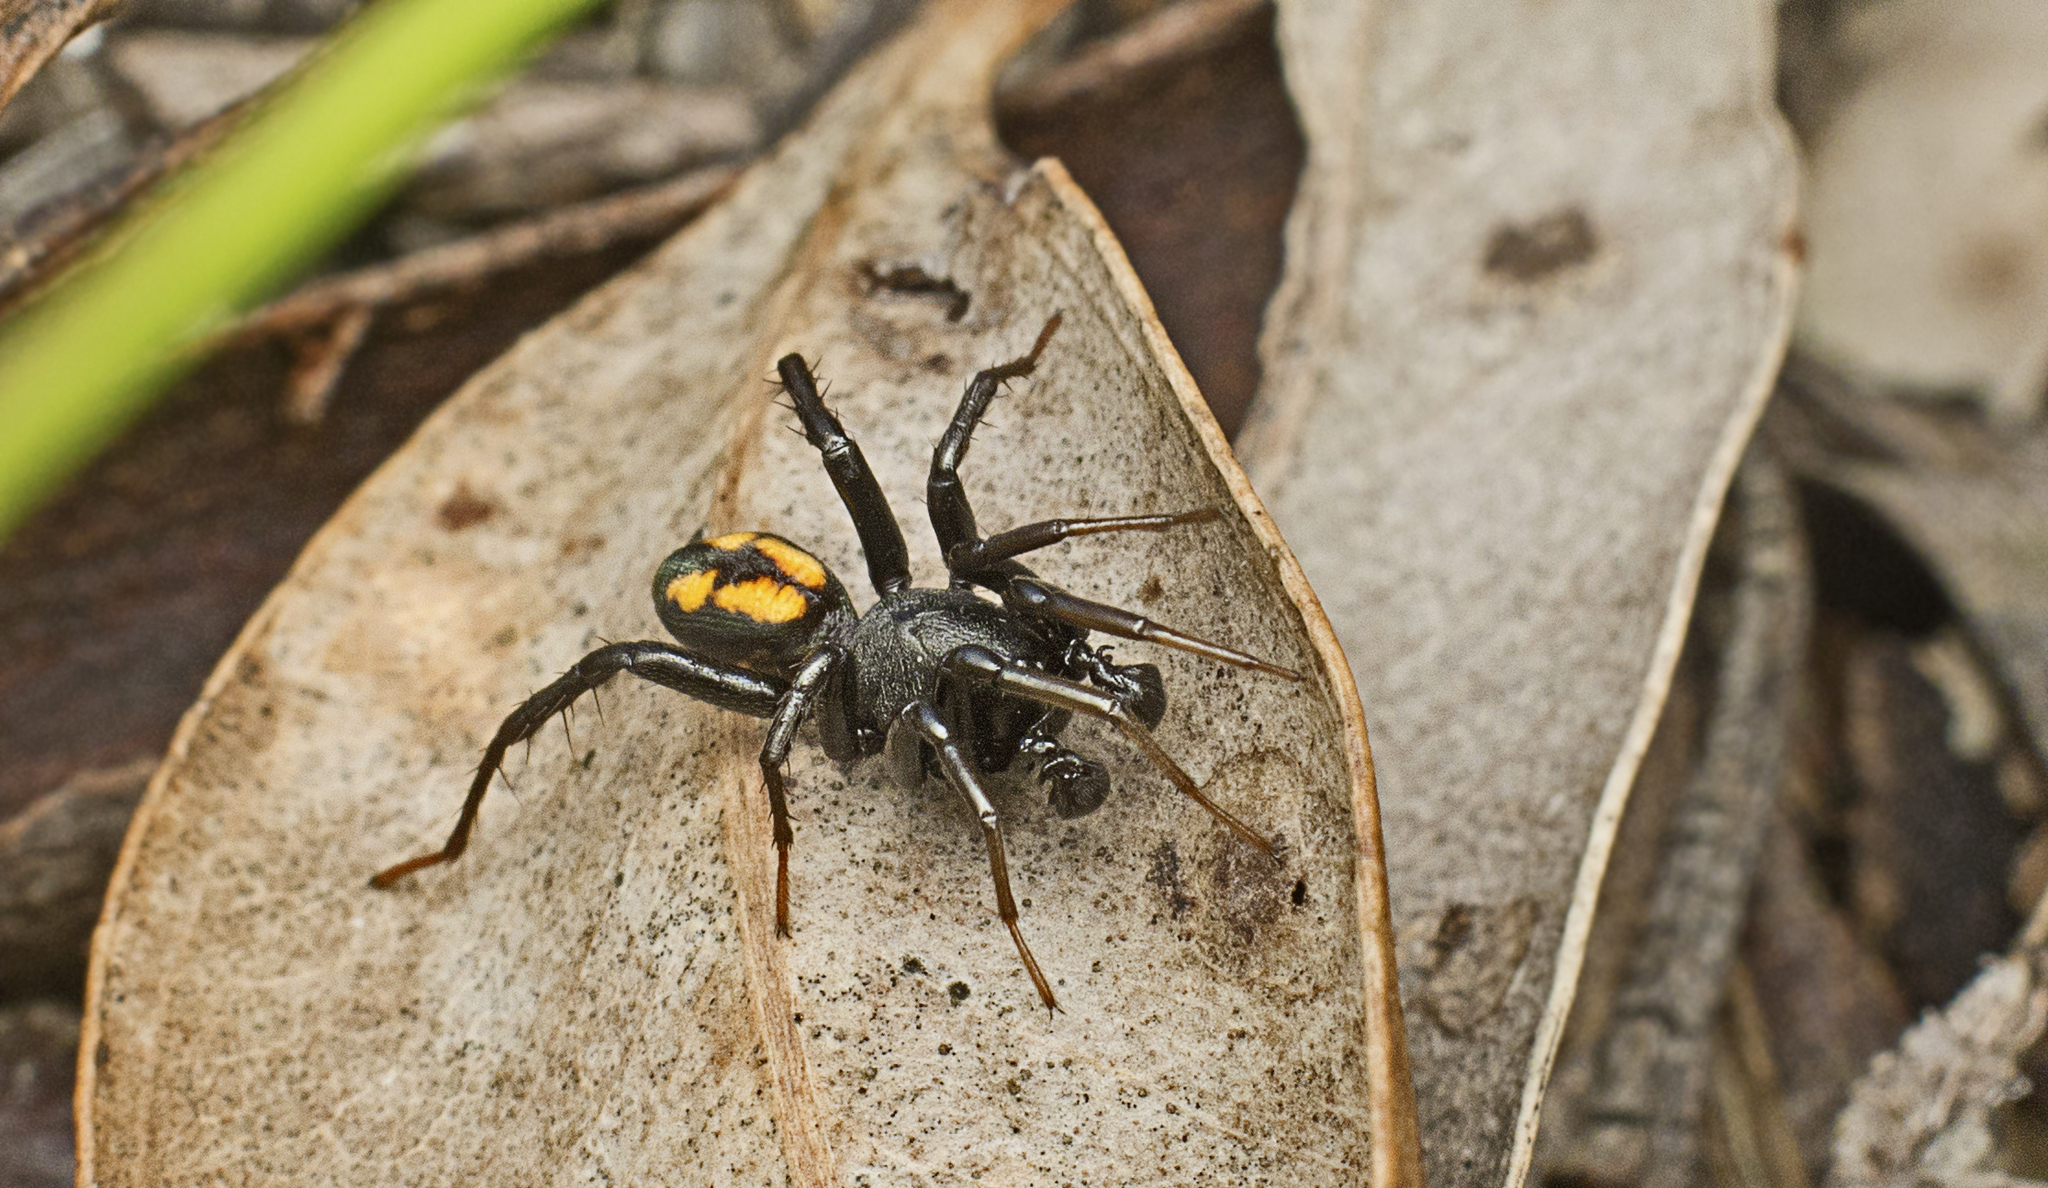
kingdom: Animalia
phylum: Arthropoda
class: Arachnida
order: Araneae
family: Zodariidae
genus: Hetaerica
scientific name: Hetaerica scenica
